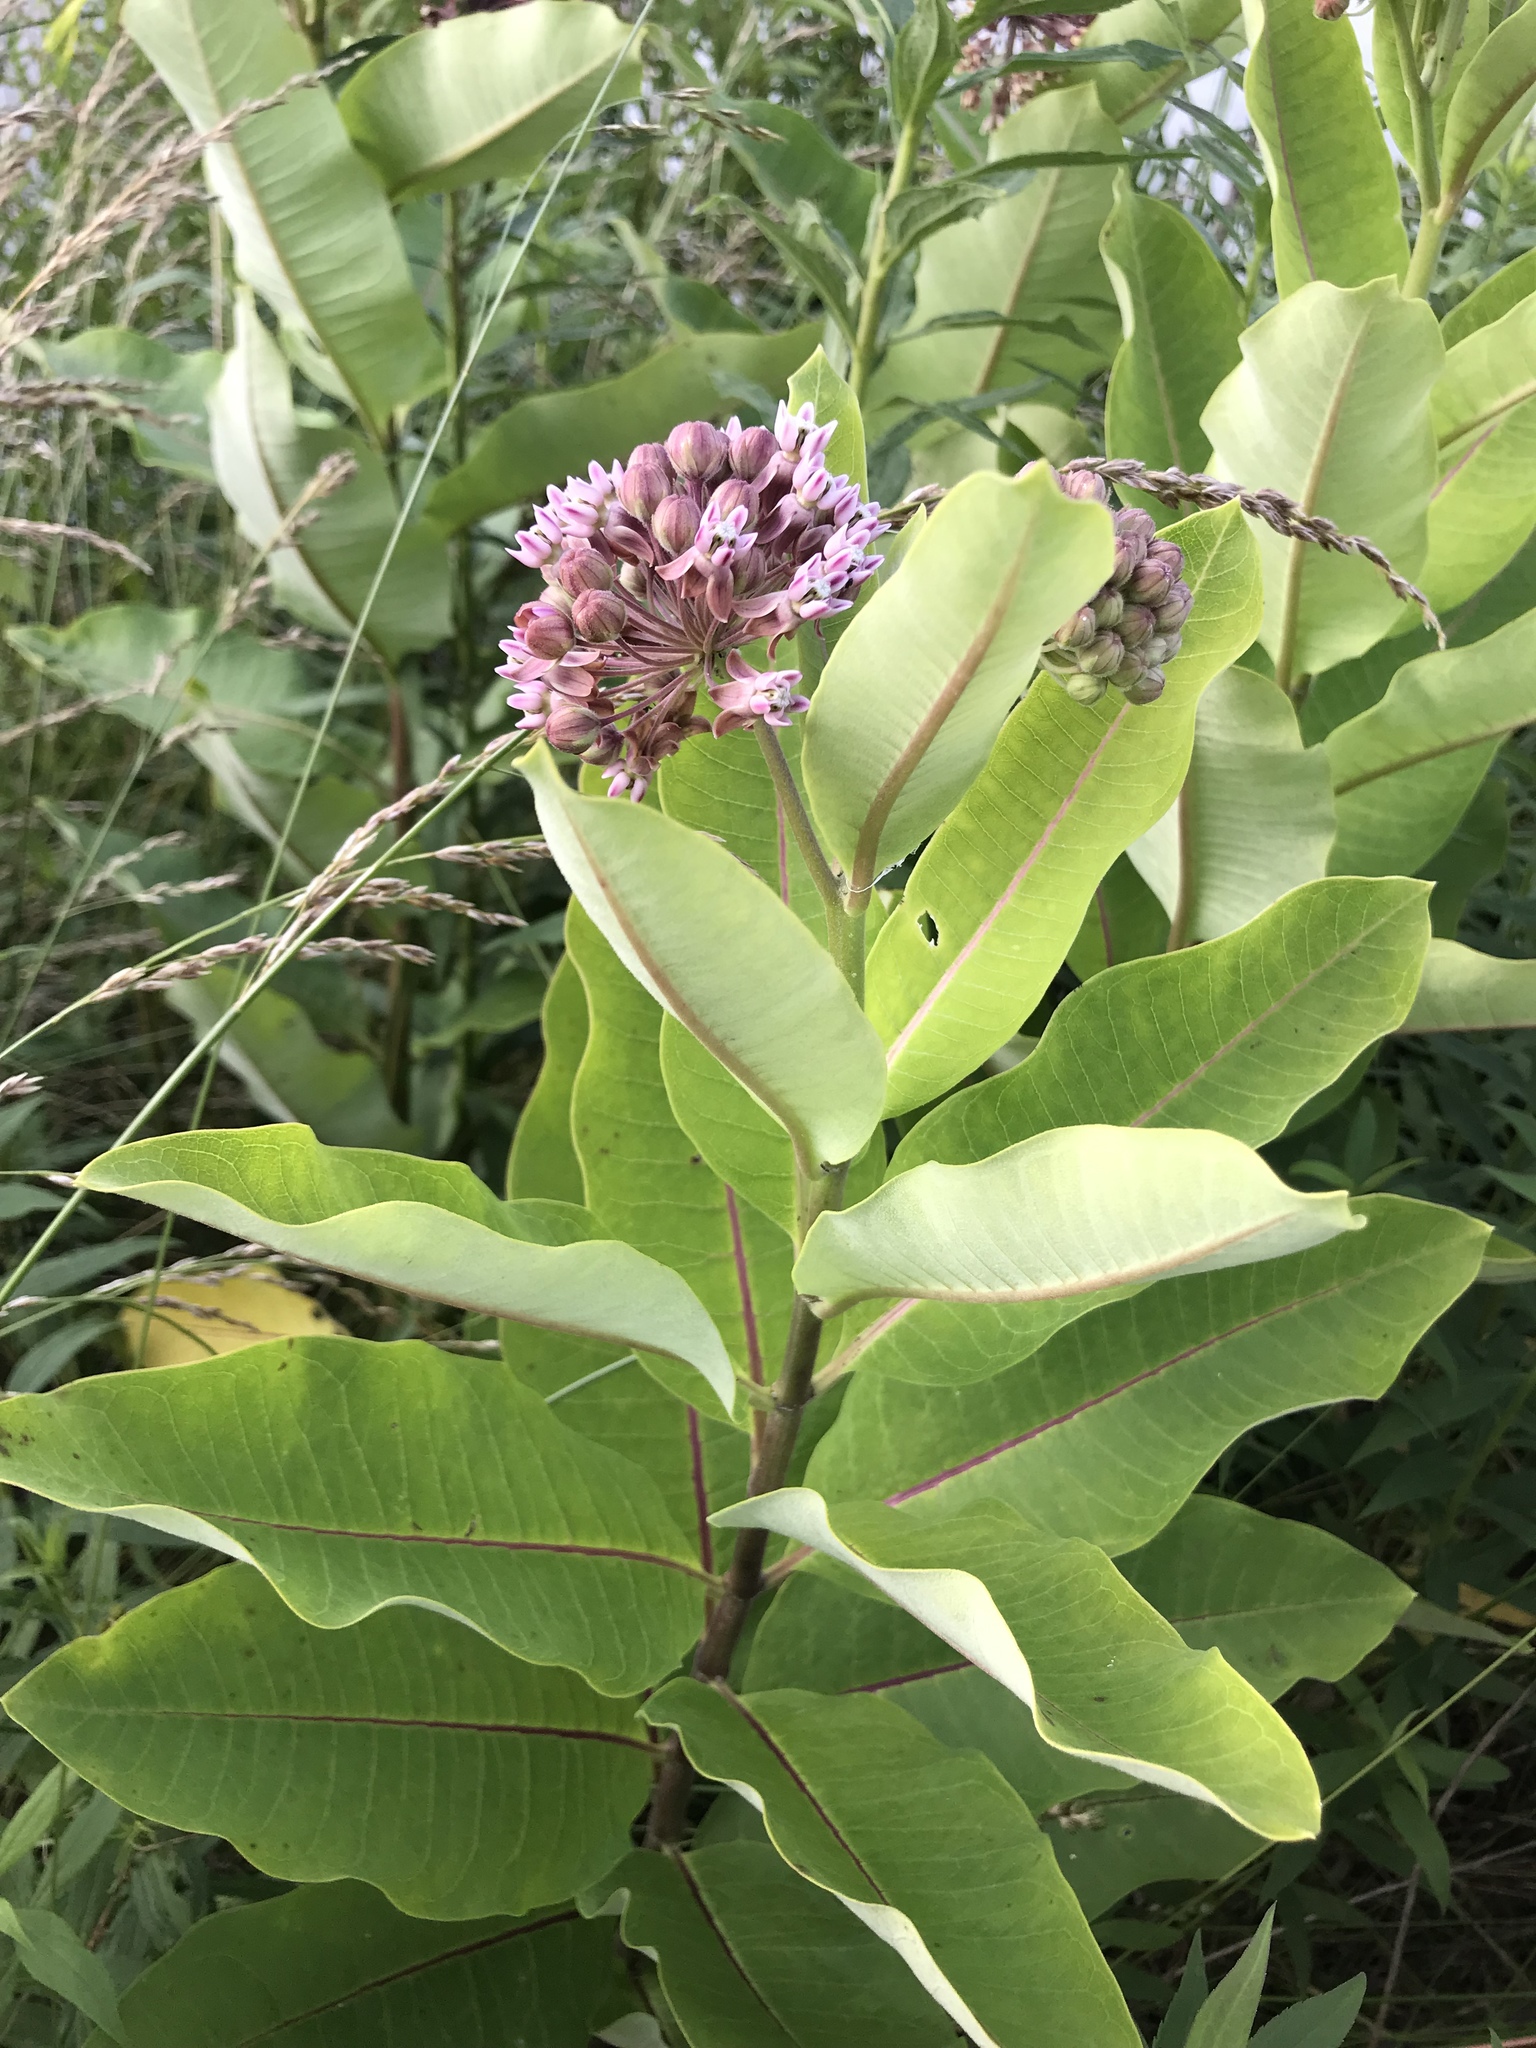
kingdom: Plantae
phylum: Tracheophyta
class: Magnoliopsida
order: Gentianales
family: Apocynaceae
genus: Asclepias
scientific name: Asclepias syriaca
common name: Common milkweed
